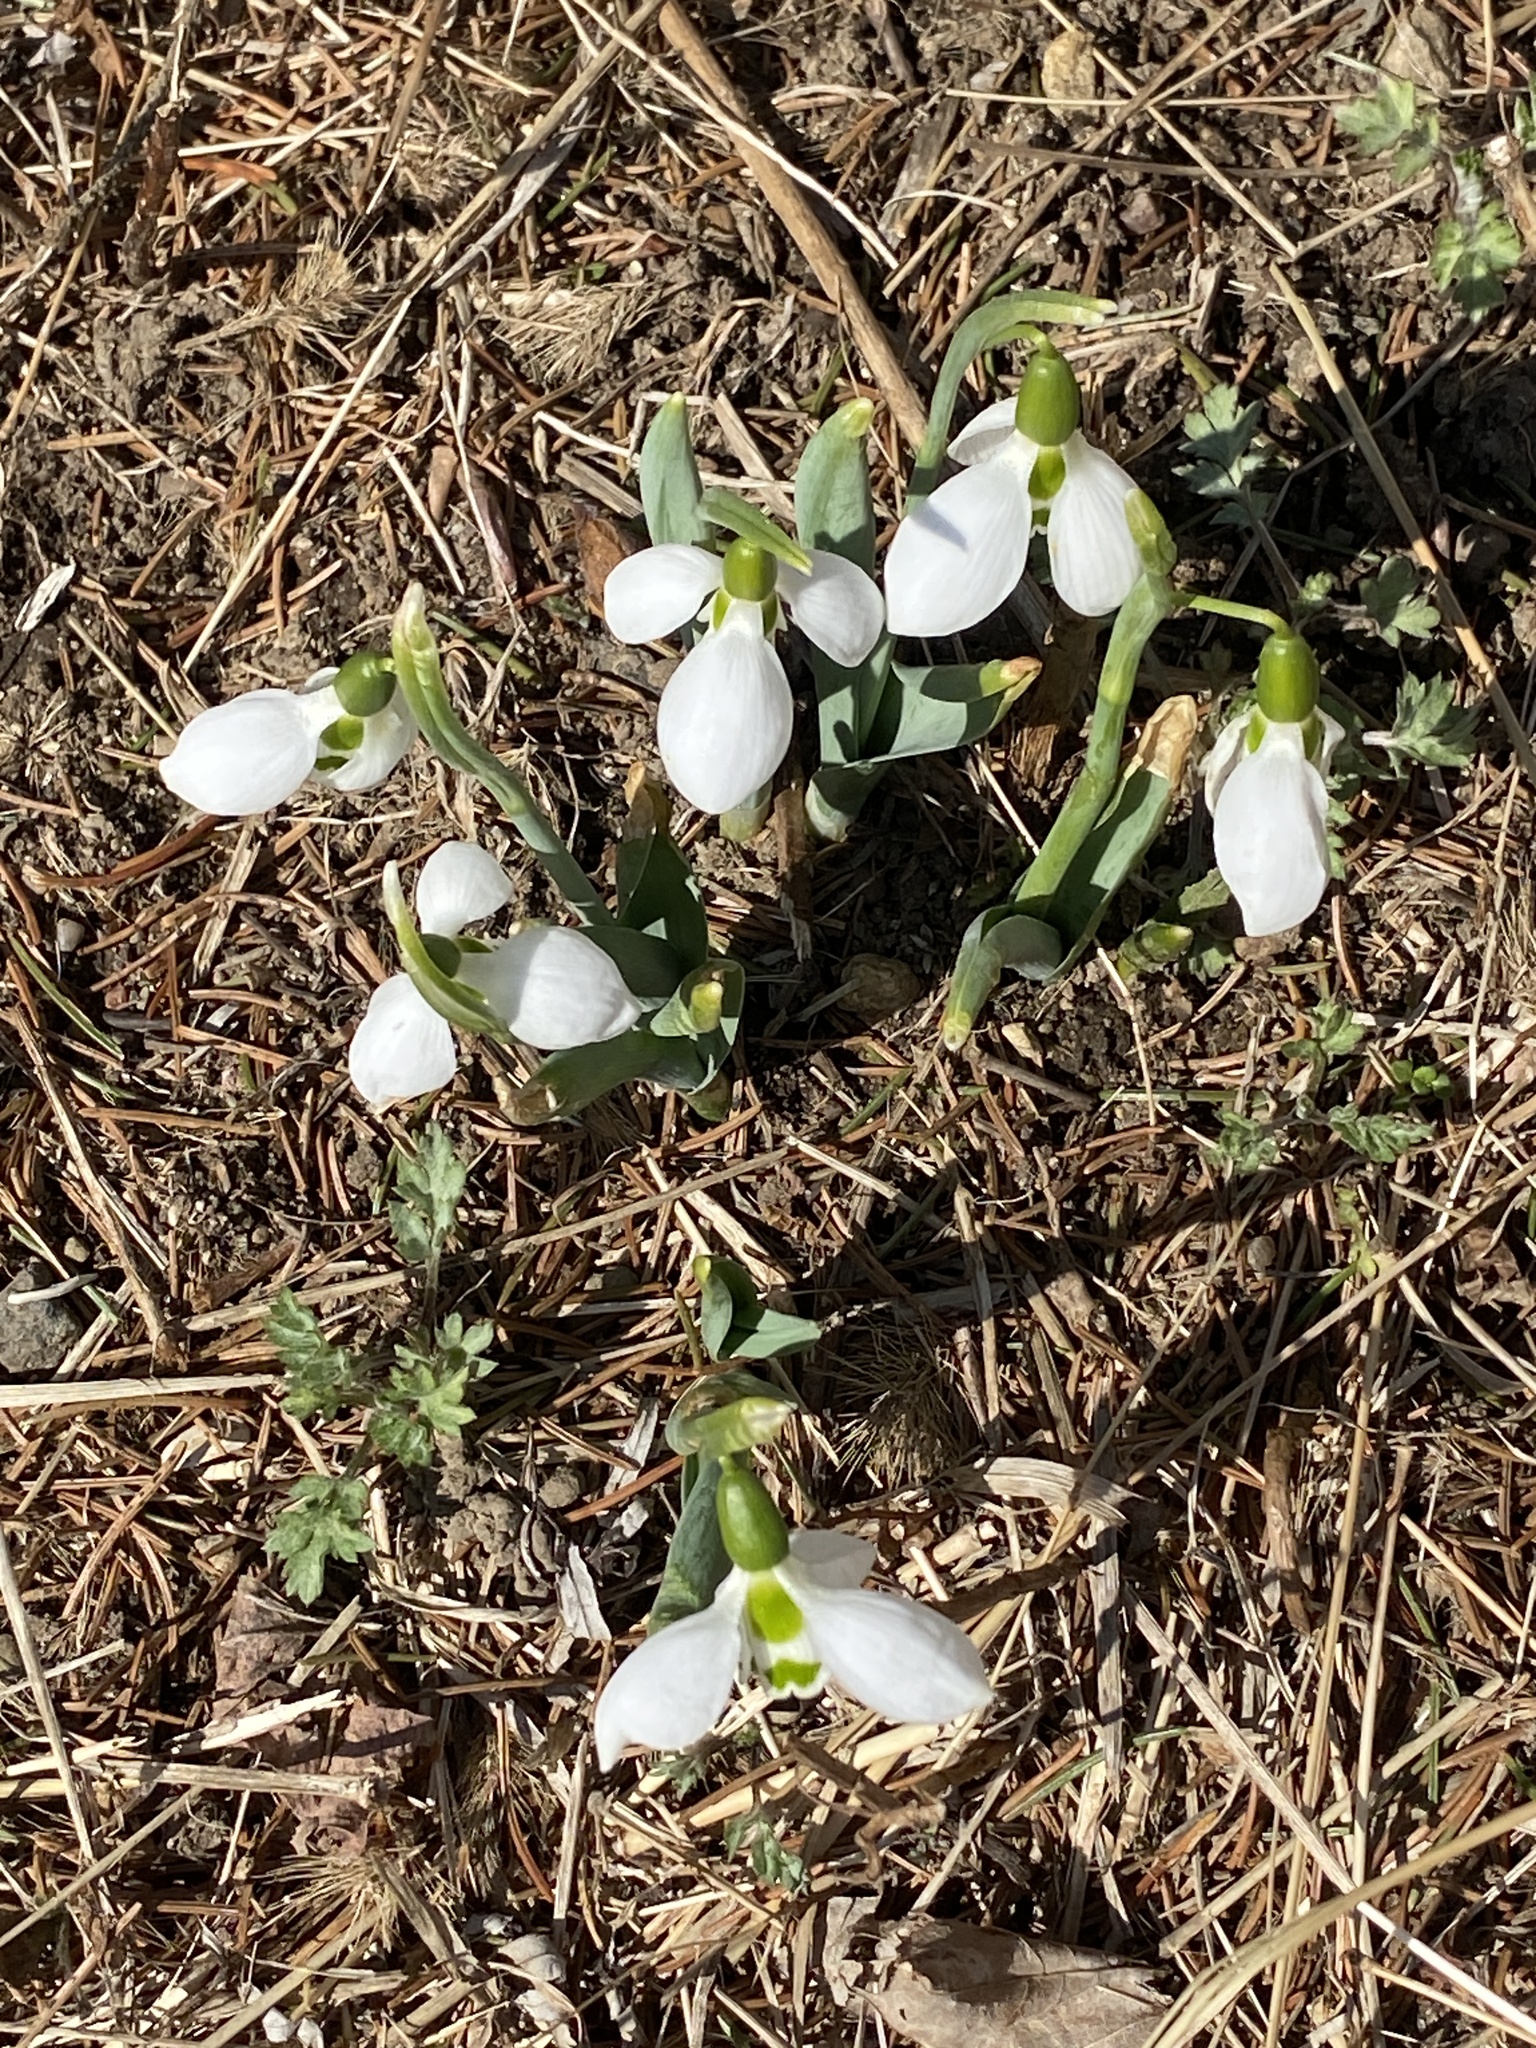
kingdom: Plantae
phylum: Tracheophyta
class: Liliopsida
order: Asparagales
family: Amaryllidaceae
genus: Galanthus
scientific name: Galanthus elwesii
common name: Greater snowdrop
